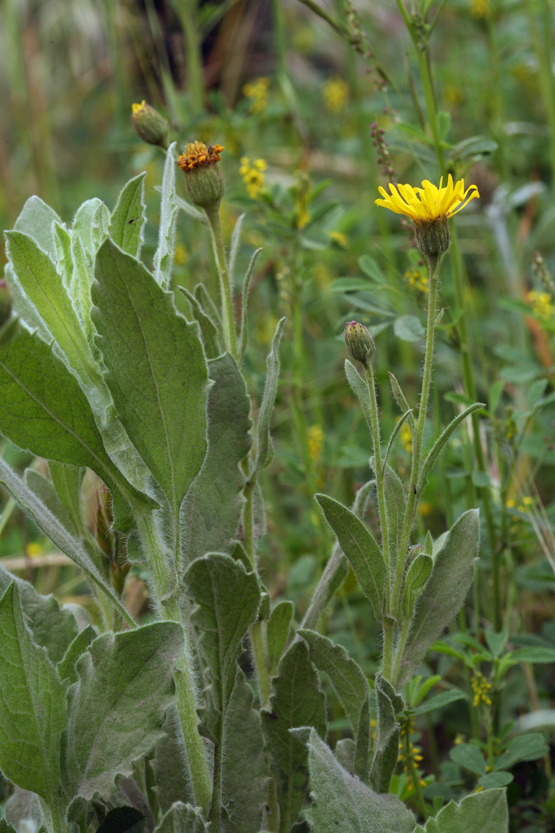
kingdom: Plantae
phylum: Tracheophyta
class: Magnoliopsida
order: Asterales
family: Asteraceae
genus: Heterotheca
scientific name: Heterotheca grandiflora
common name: Telegraphweed
